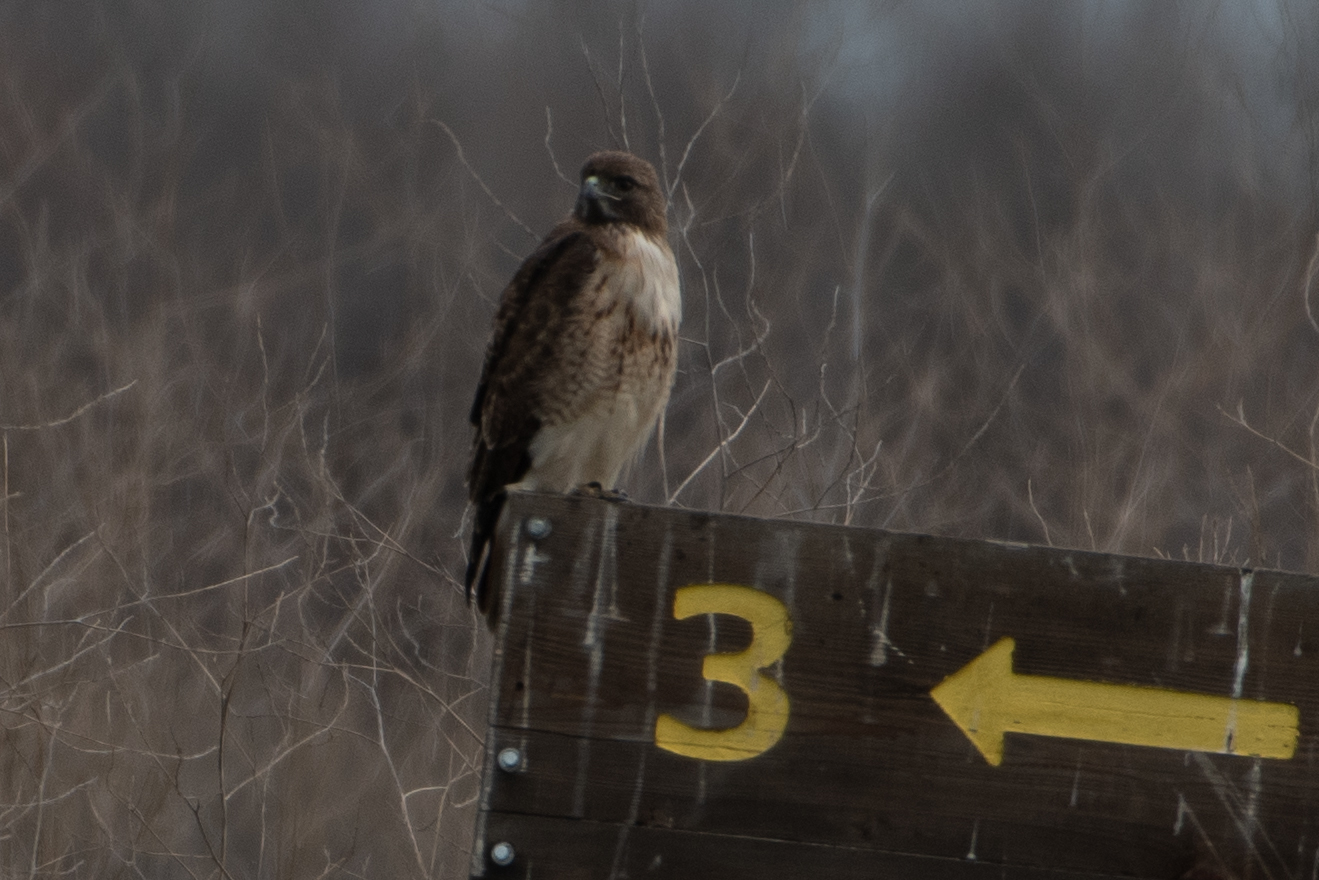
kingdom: Animalia
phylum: Chordata
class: Aves
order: Accipitriformes
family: Accipitridae
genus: Buteo
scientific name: Buteo jamaicensis
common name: Red-tailed hawk
